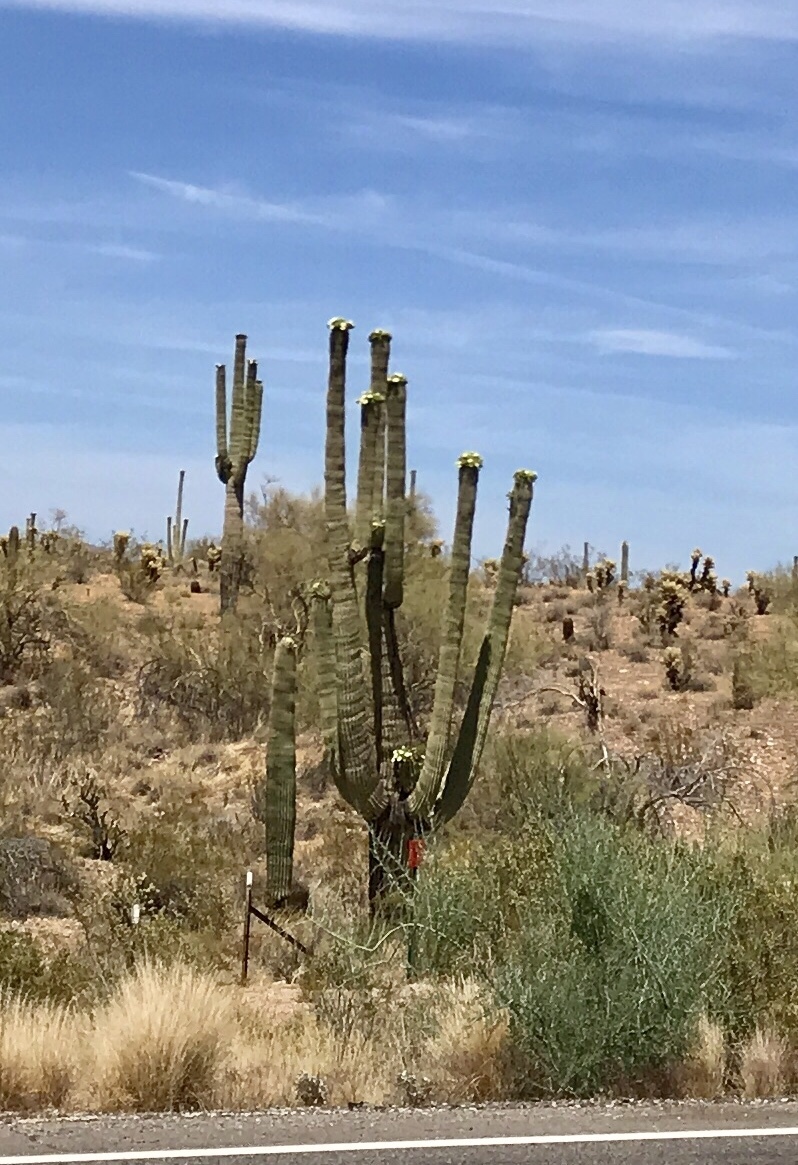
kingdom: Plantae
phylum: Tracheophyta
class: Magnoliopsida
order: Caryophyllales
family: Cactaceae
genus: Carnegiea
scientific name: Carnegiea gigantea
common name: Saguaro
